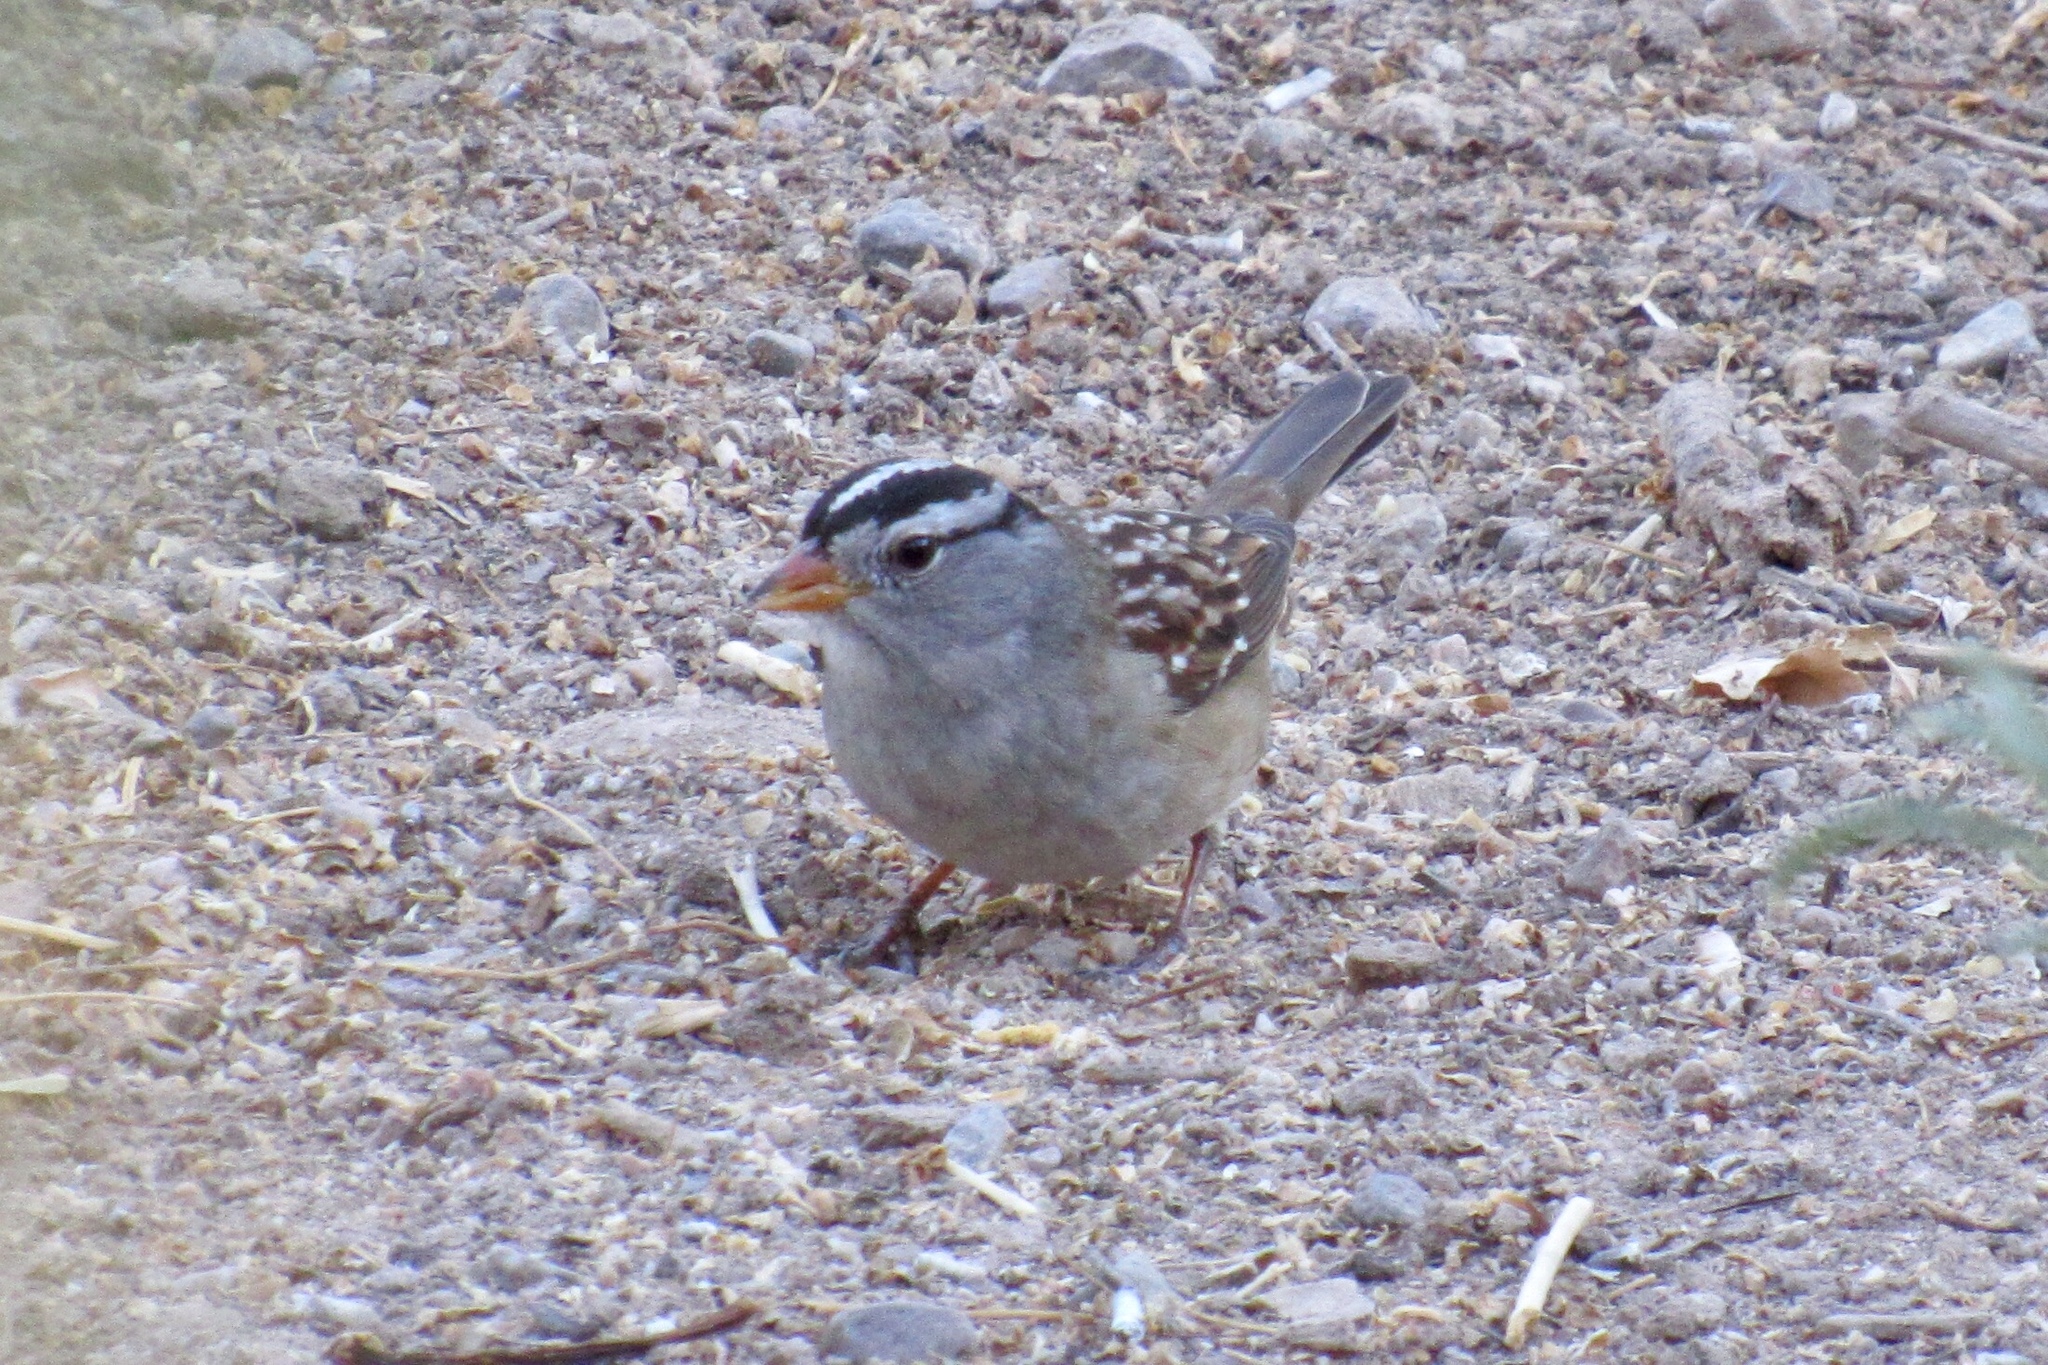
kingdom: Animalia
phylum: Chordata
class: Aves
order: Passeriformes
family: Passerellidae
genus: Zonotrichia
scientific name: Zonotrichia leucophrys
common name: White-crowned sparrow
